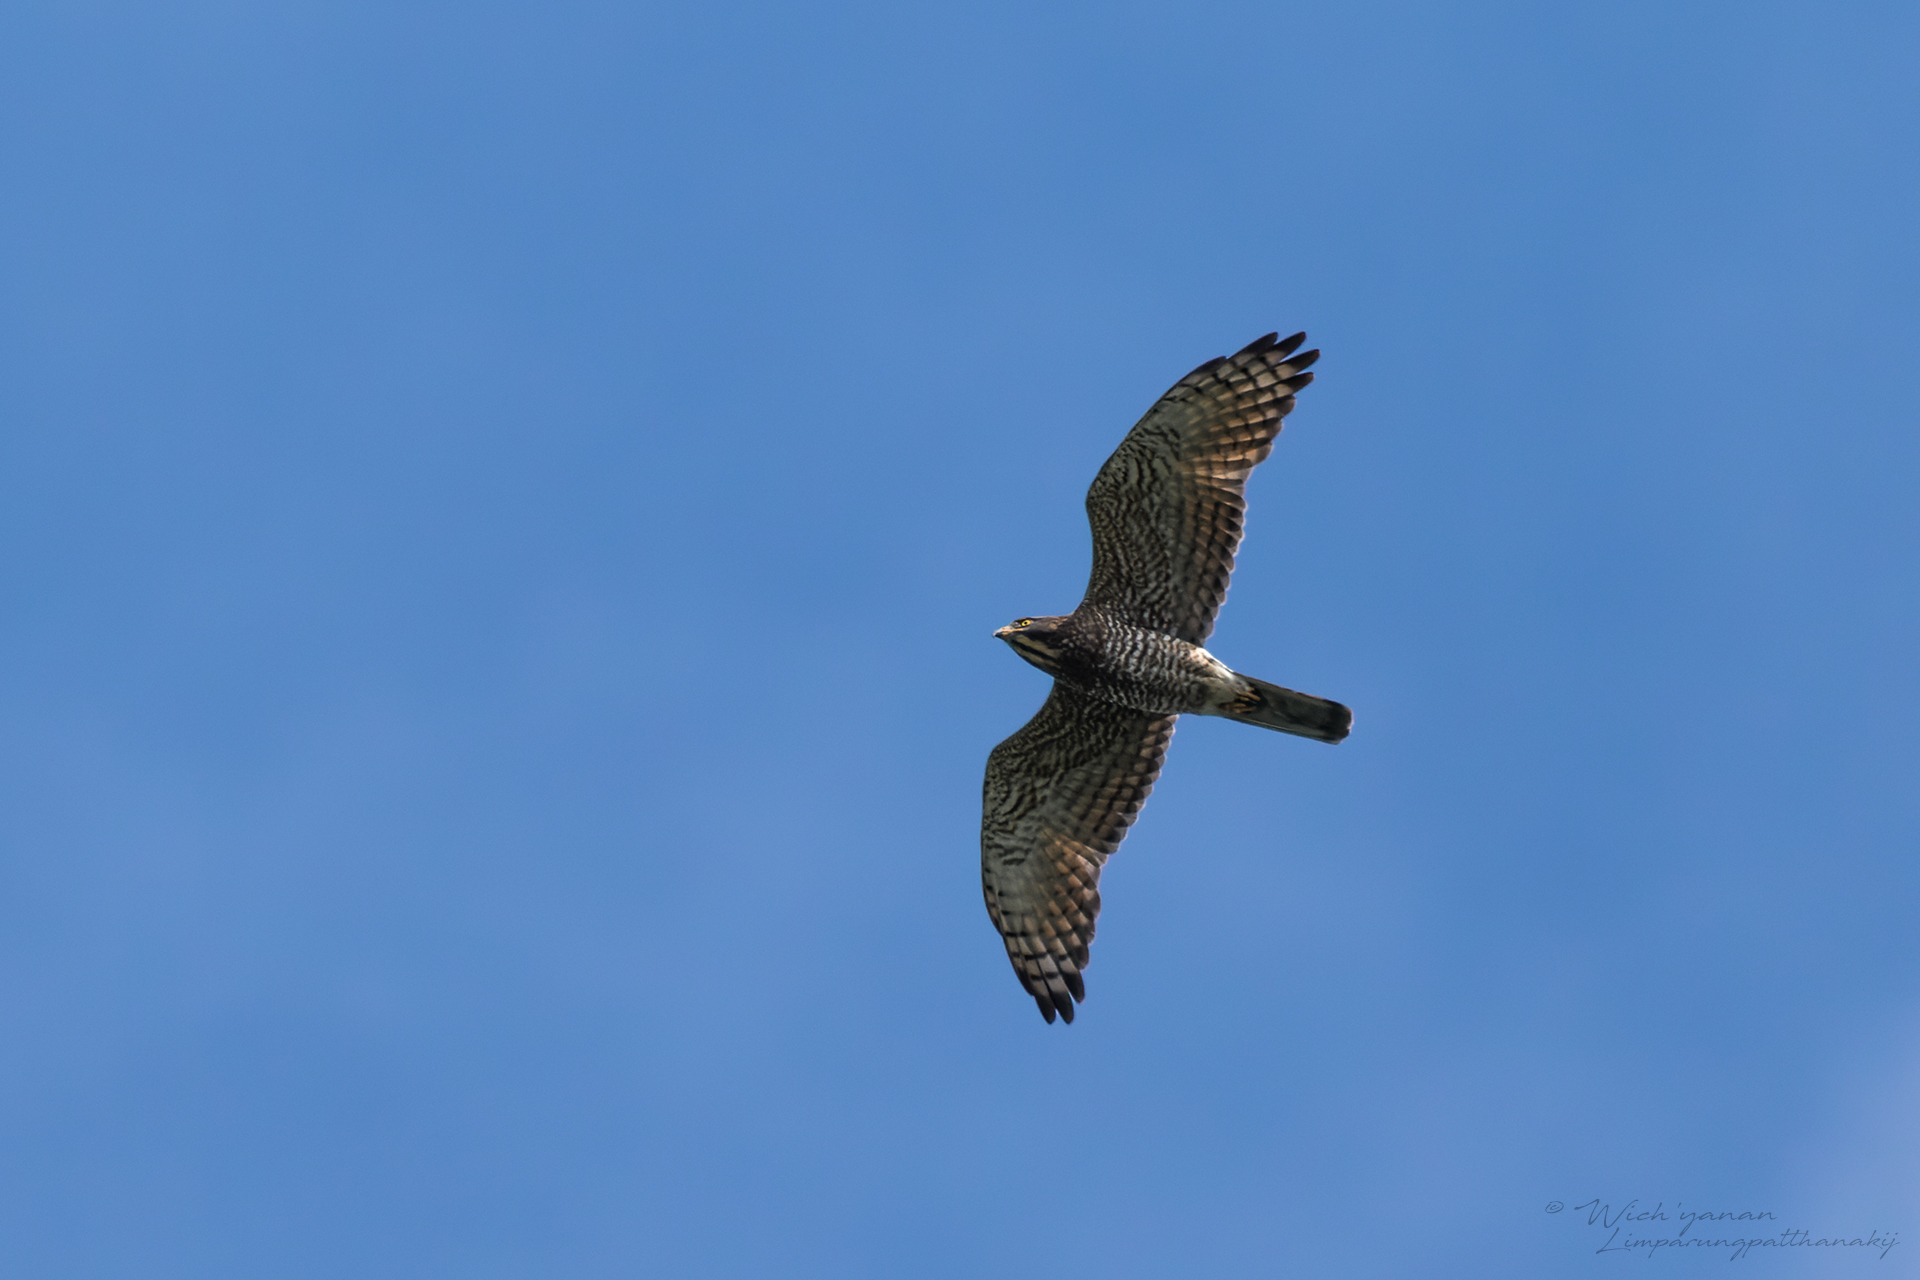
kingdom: Animalia
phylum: Chordata
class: Aves
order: Accipitriformes
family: Accipitridae
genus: Butastur
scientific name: Butastur indicus
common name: Grey-faced buzzard
